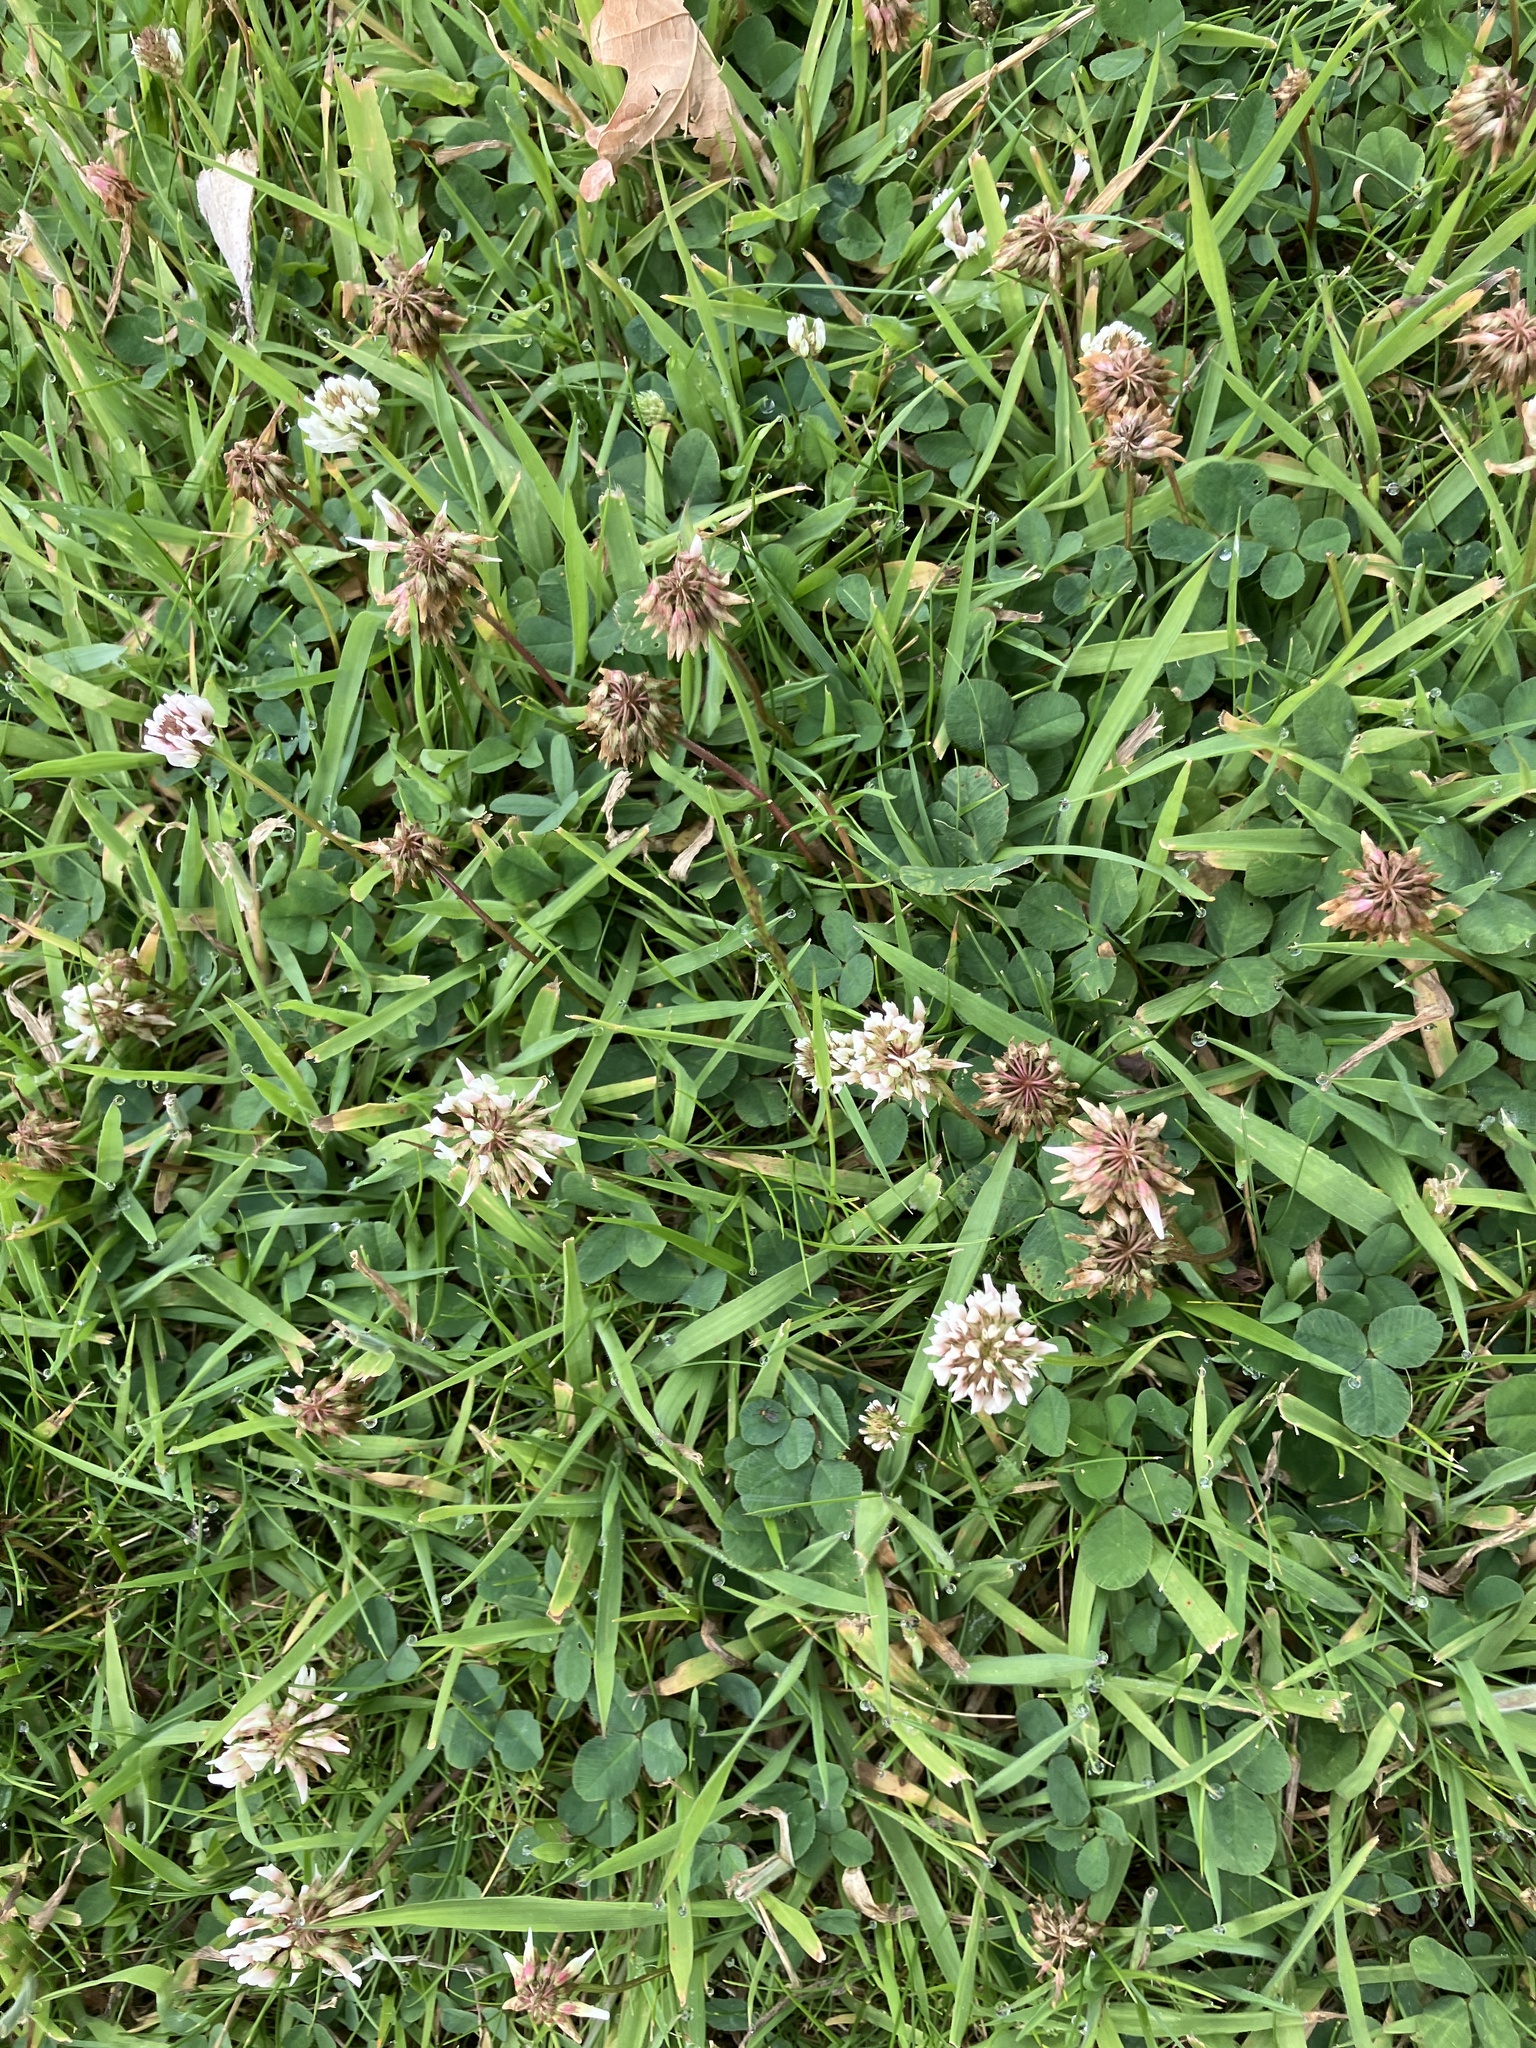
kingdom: Plantae
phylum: Tracheophyta
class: Magnoliopsida
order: Fabales
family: Fabaceae
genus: Trifolium
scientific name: Trifolium repens
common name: White clover
